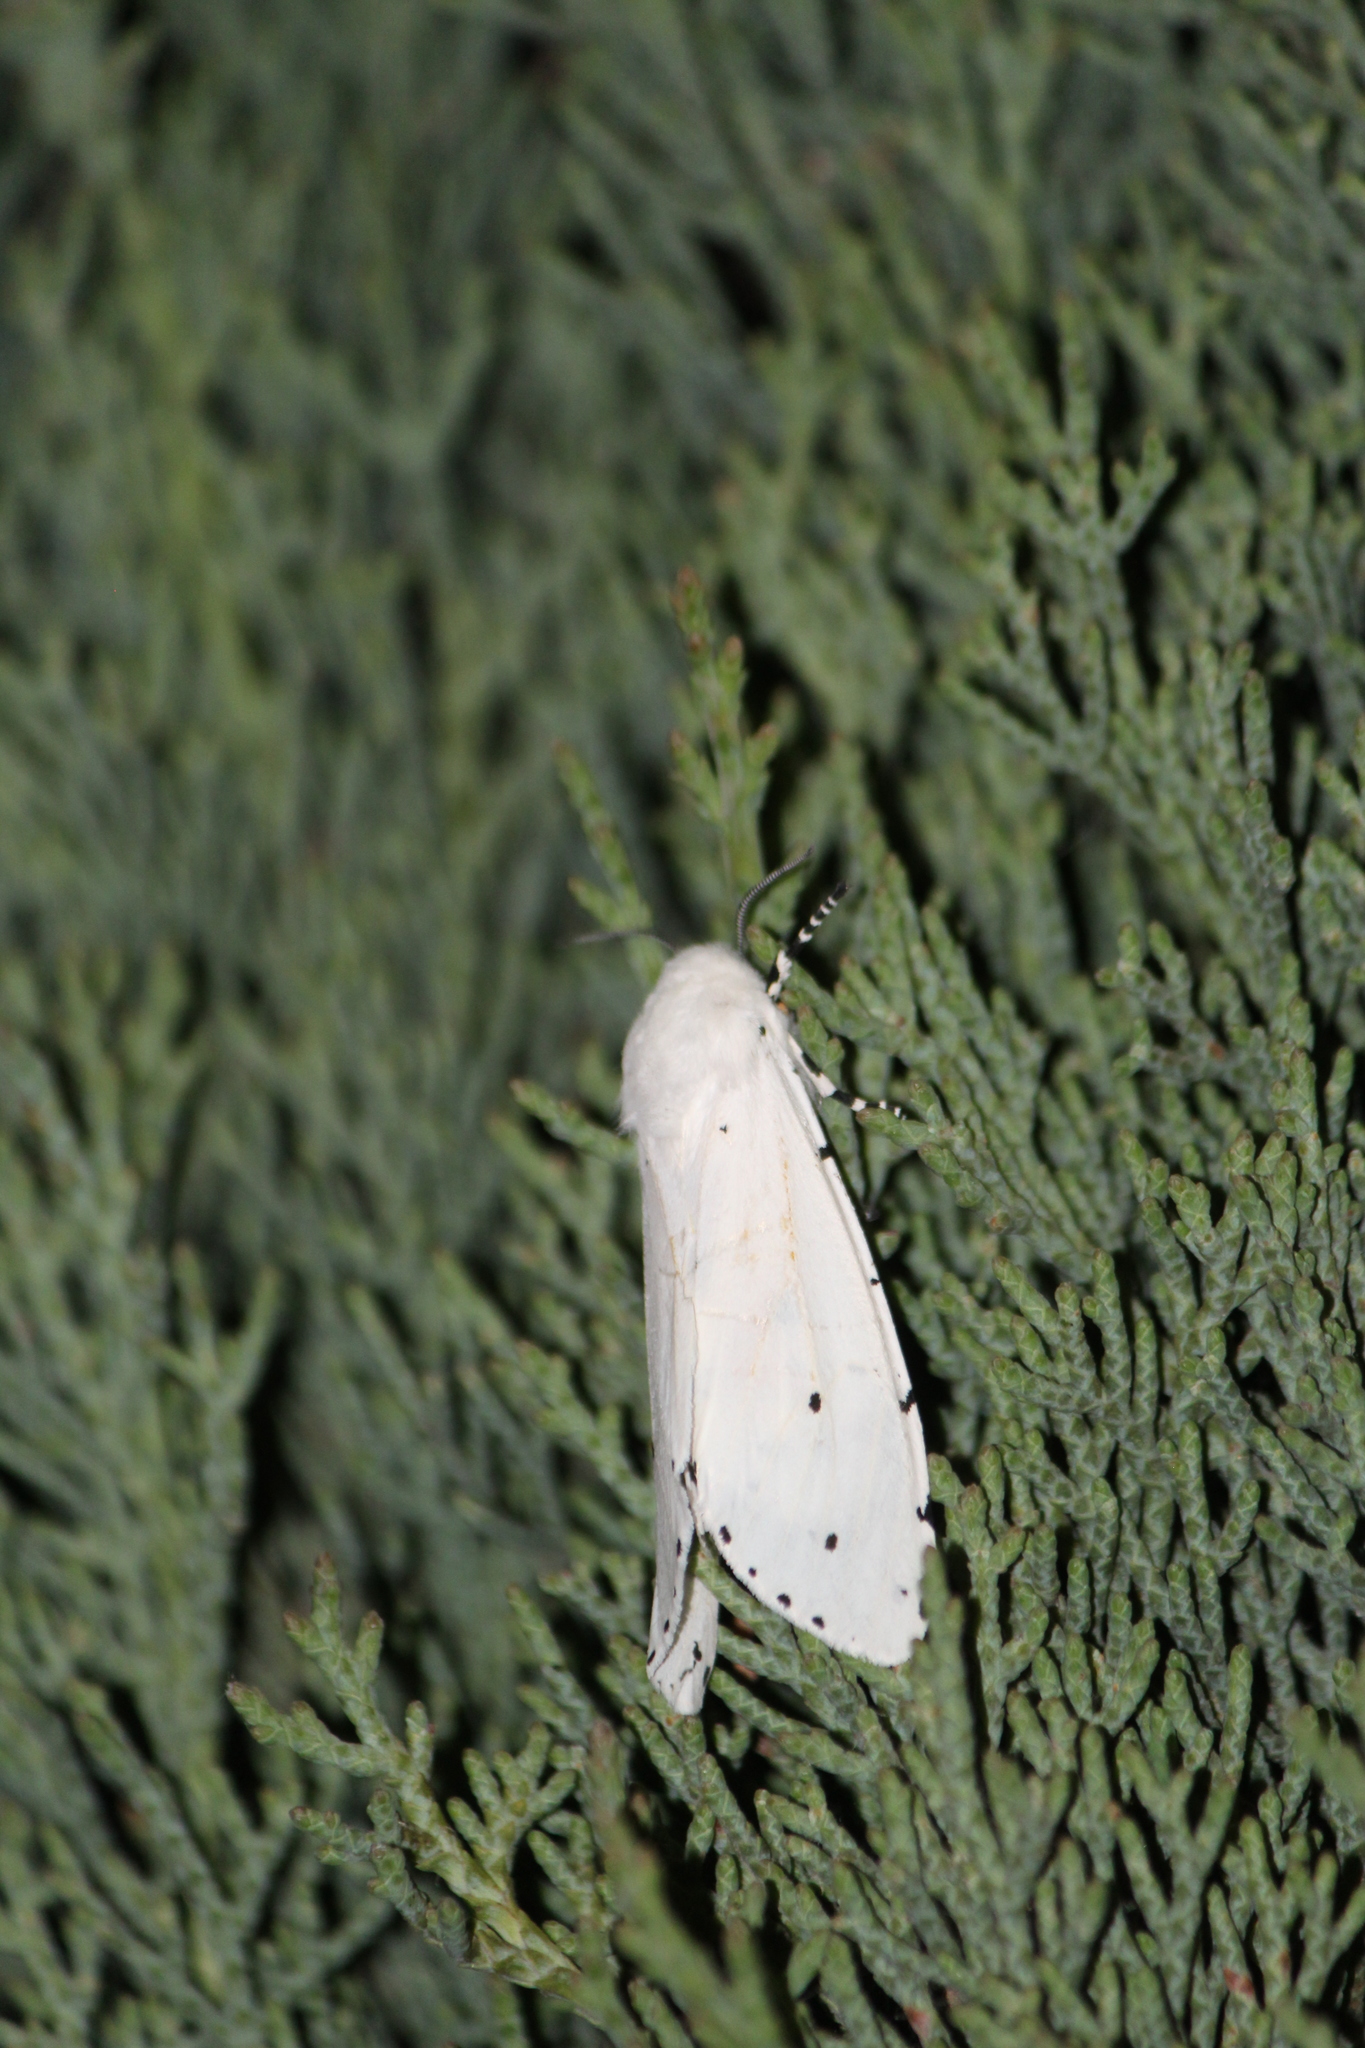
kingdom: Animalia
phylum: Arthropoda
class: Insecta
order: Lepidoptera
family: Erebidae
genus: Estigmene
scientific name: Estigmene acrea
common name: Salt marsh moth
